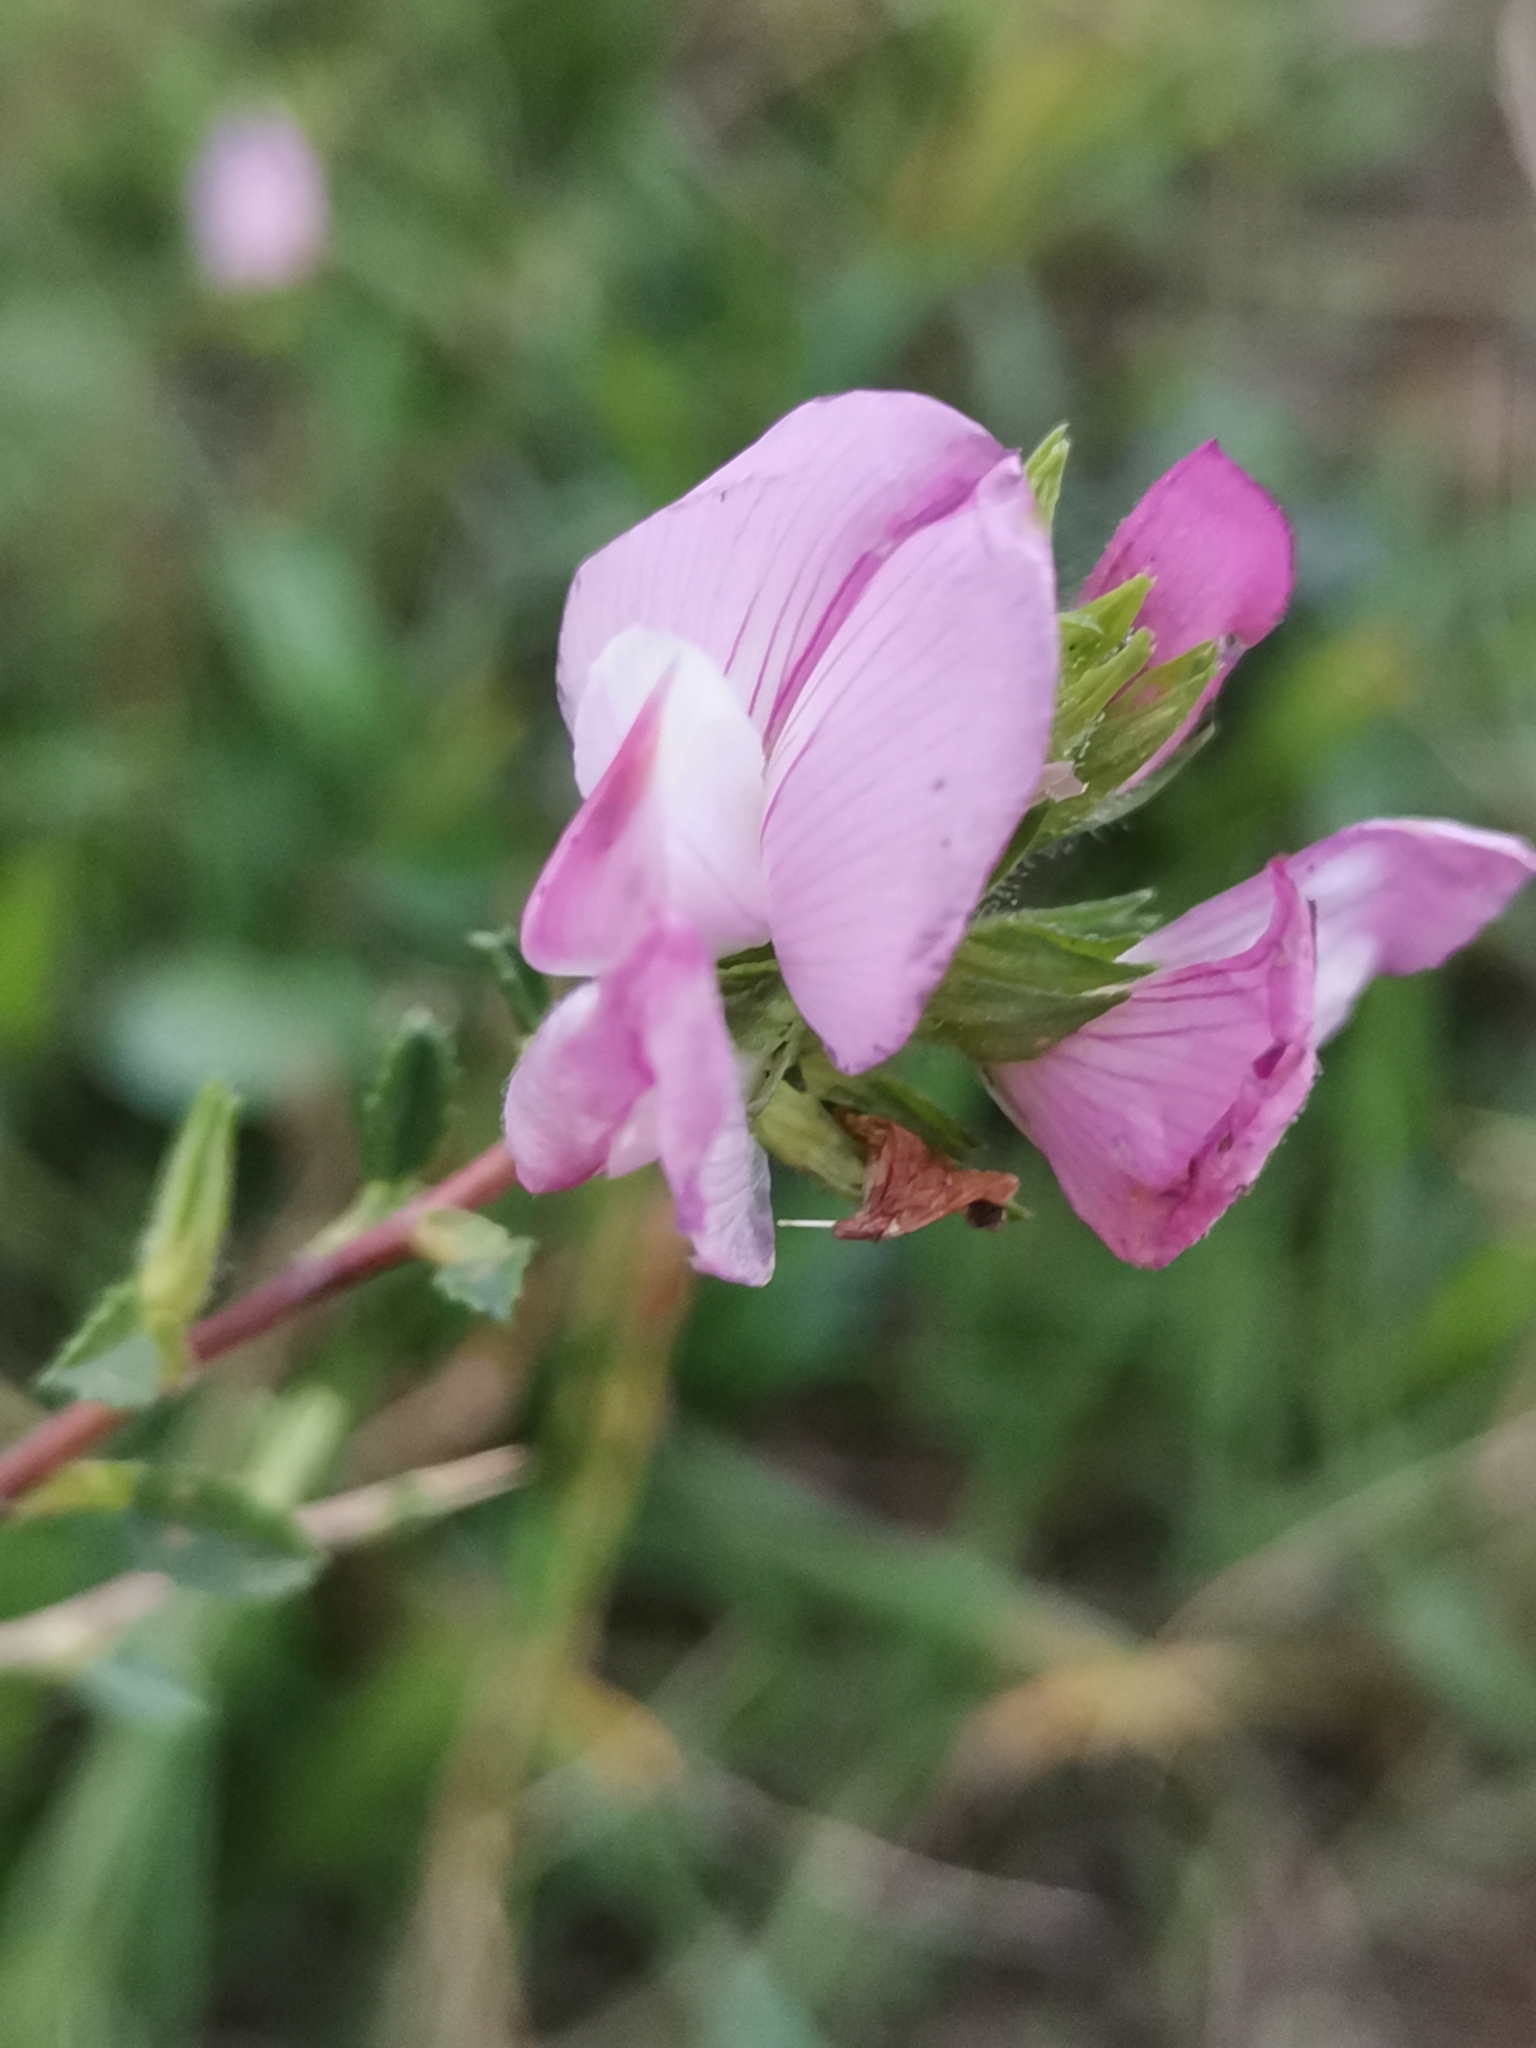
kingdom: Plantae
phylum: Tracheophyta
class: Magnoliopsida
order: Fabales
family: Fabaceae
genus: Ononis
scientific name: Ononis spinosa
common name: Spiny restharrow
